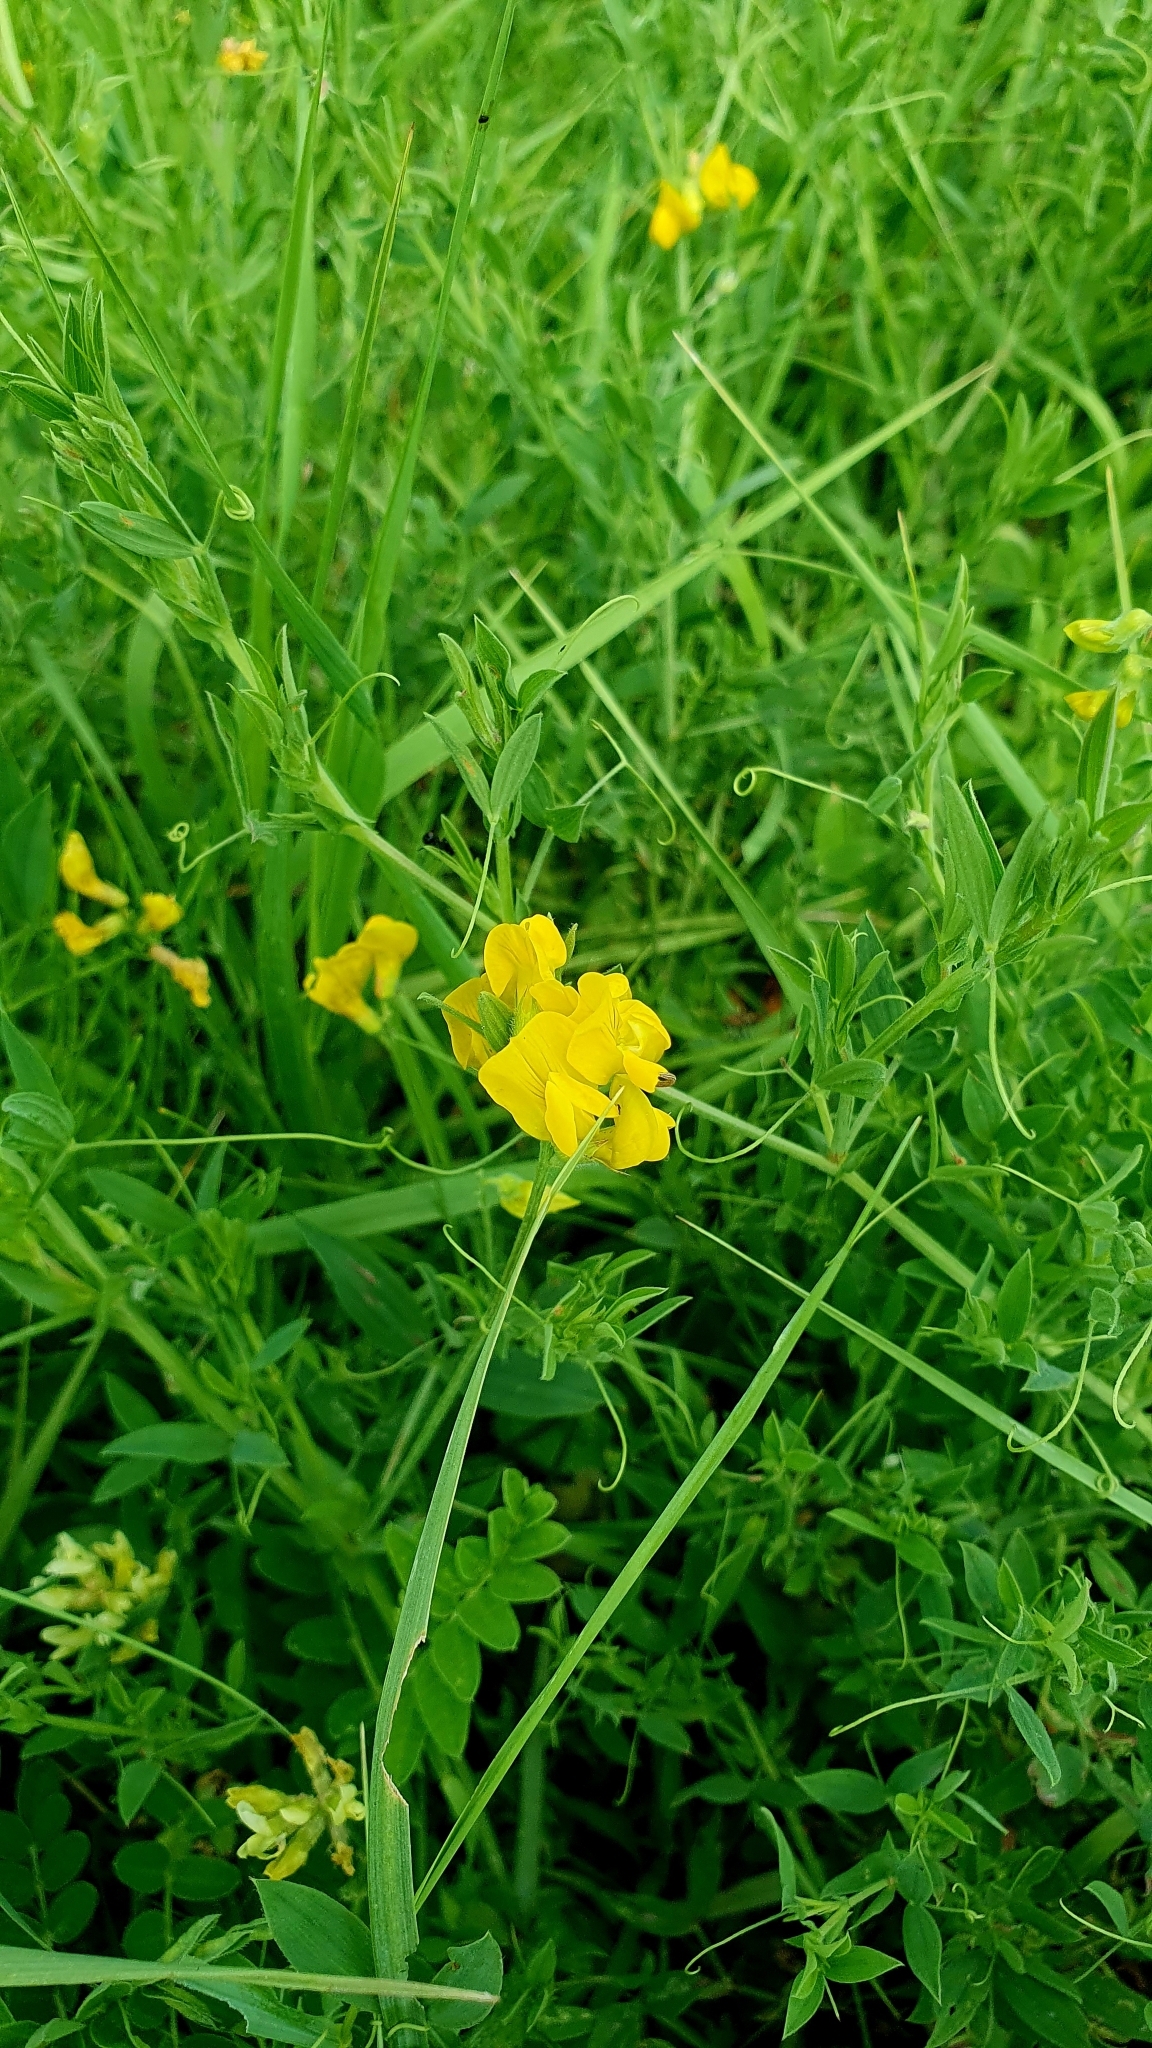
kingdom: Plantae
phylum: Tracheophyta
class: Magnoliopsida
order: Fabales
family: Fabaceae
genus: Lathyrus
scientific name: Lathyrus pratensis
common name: Meadow vetchling
